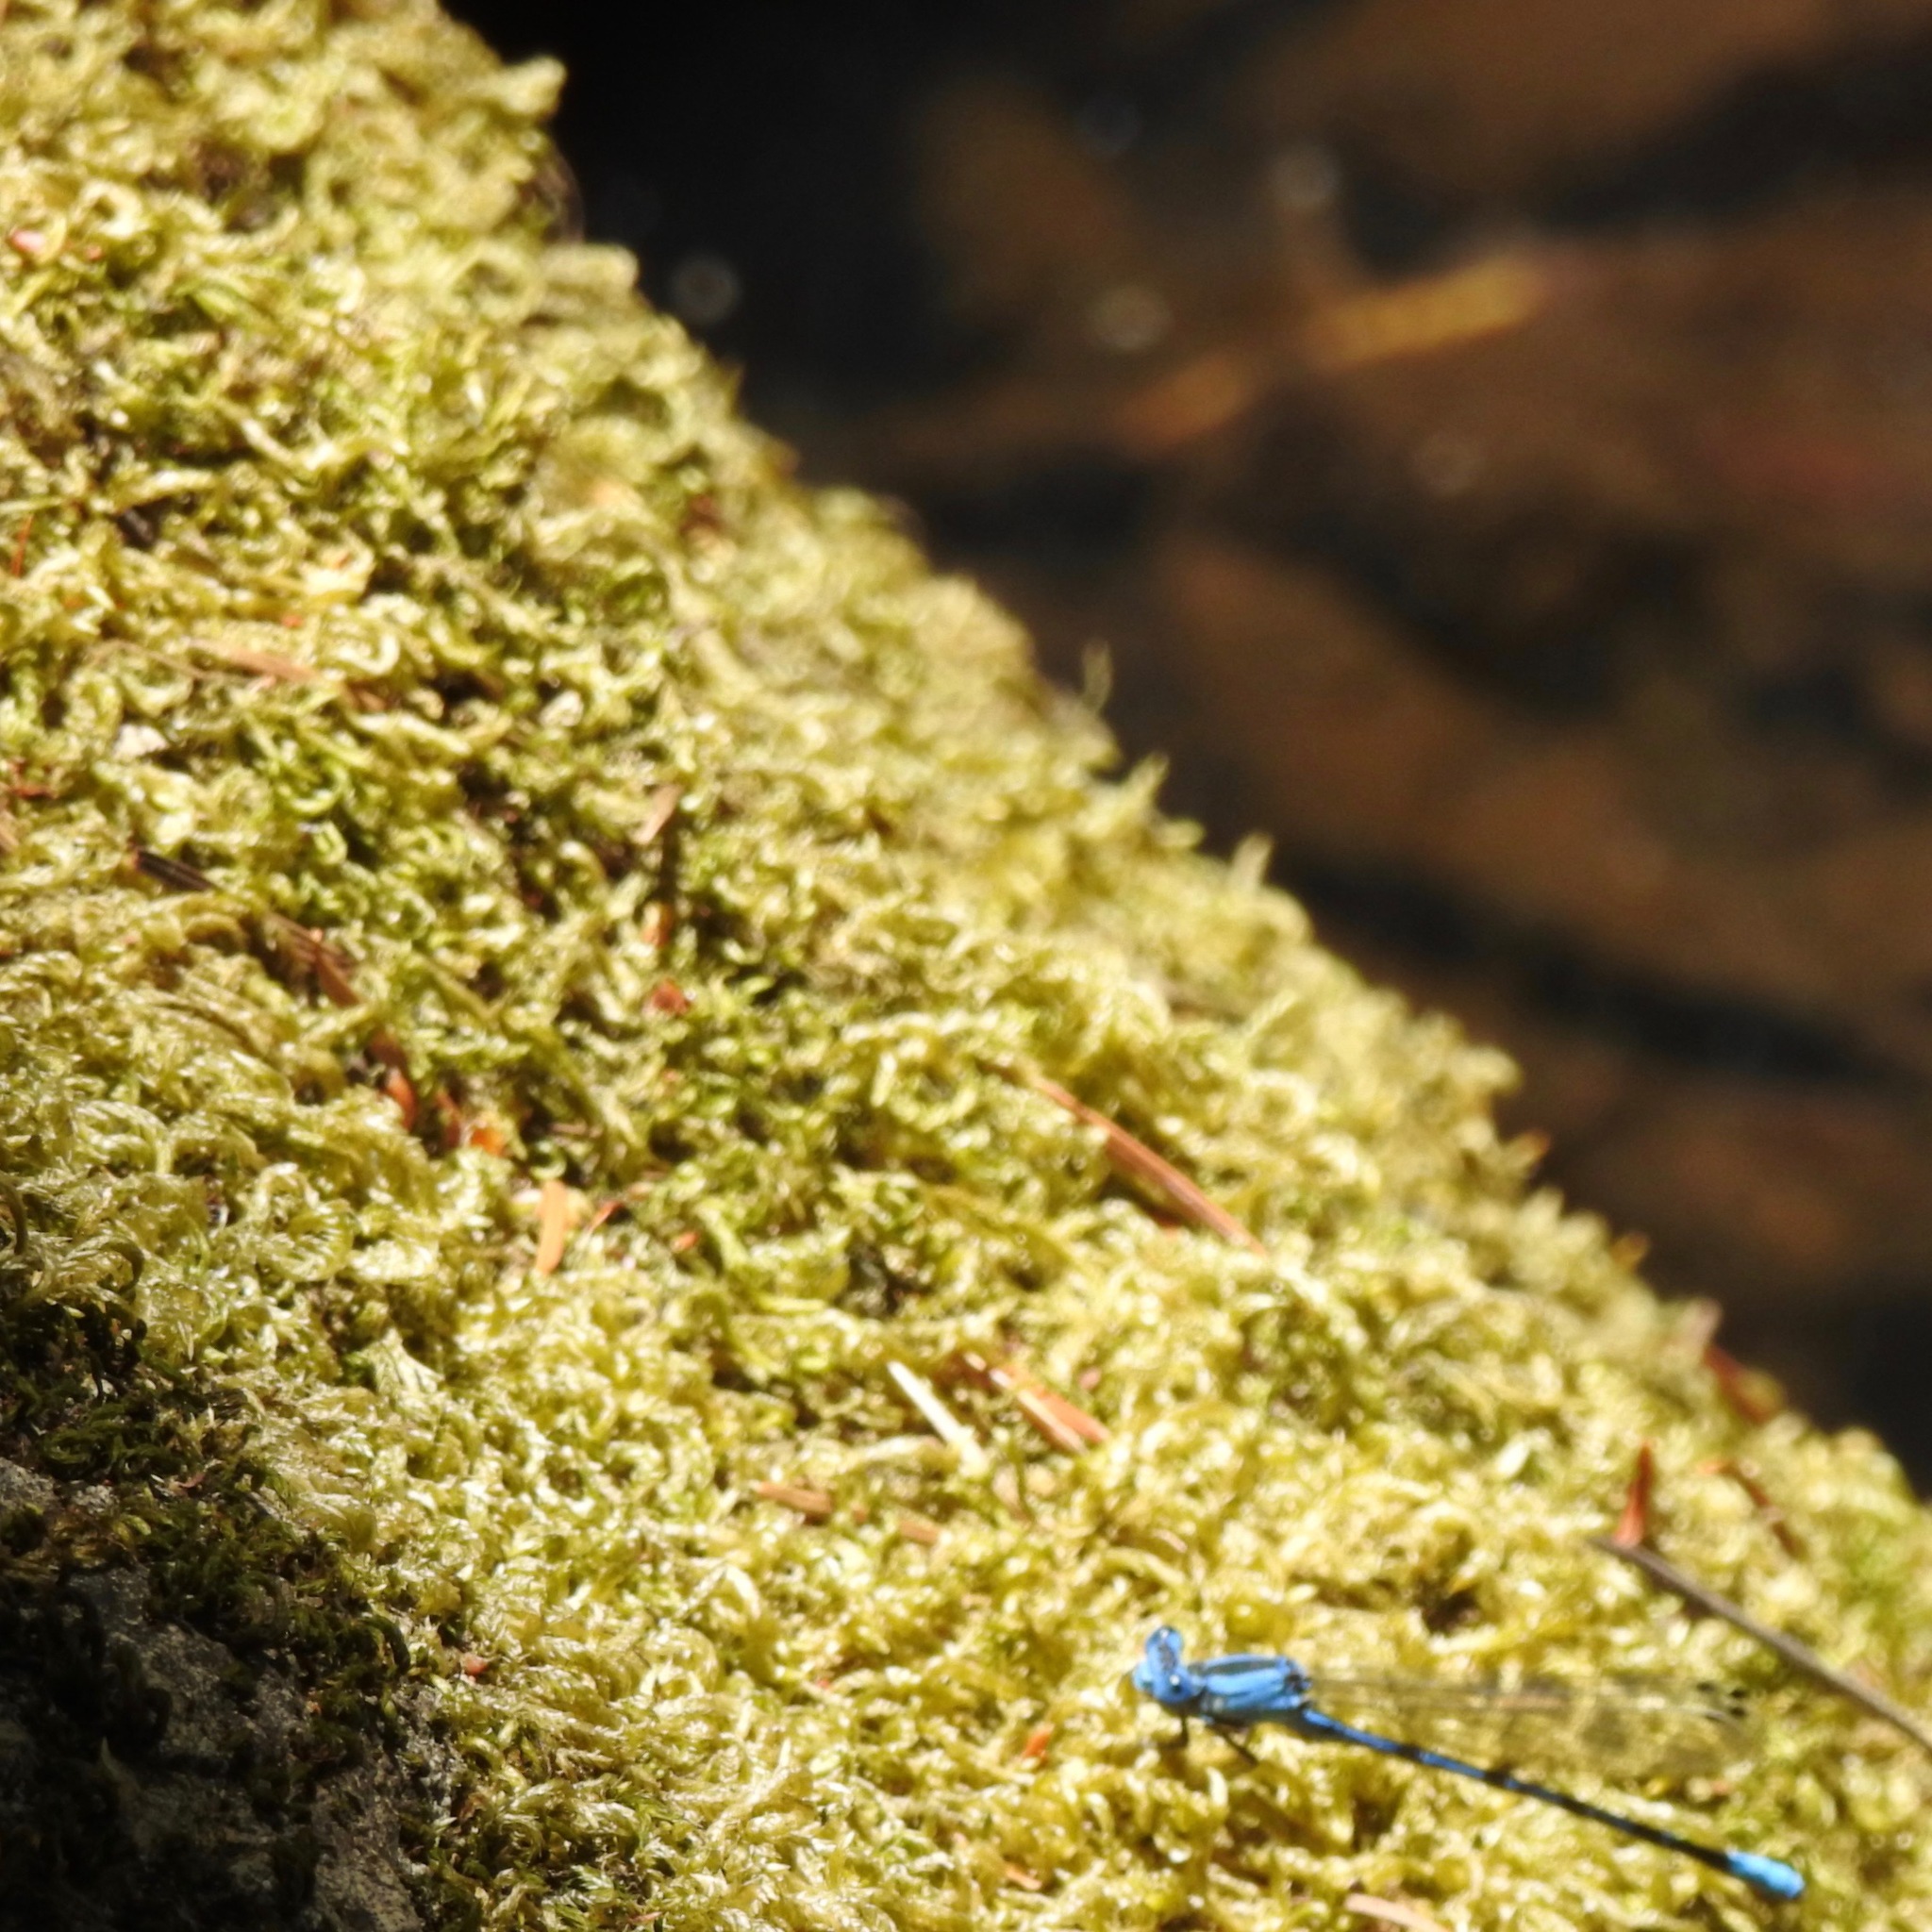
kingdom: Animalia
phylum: Arthropoda
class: Insecta
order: Odonata
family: Coenagrionidae
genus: Argia
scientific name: Argia vivida
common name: Vivid dancer
